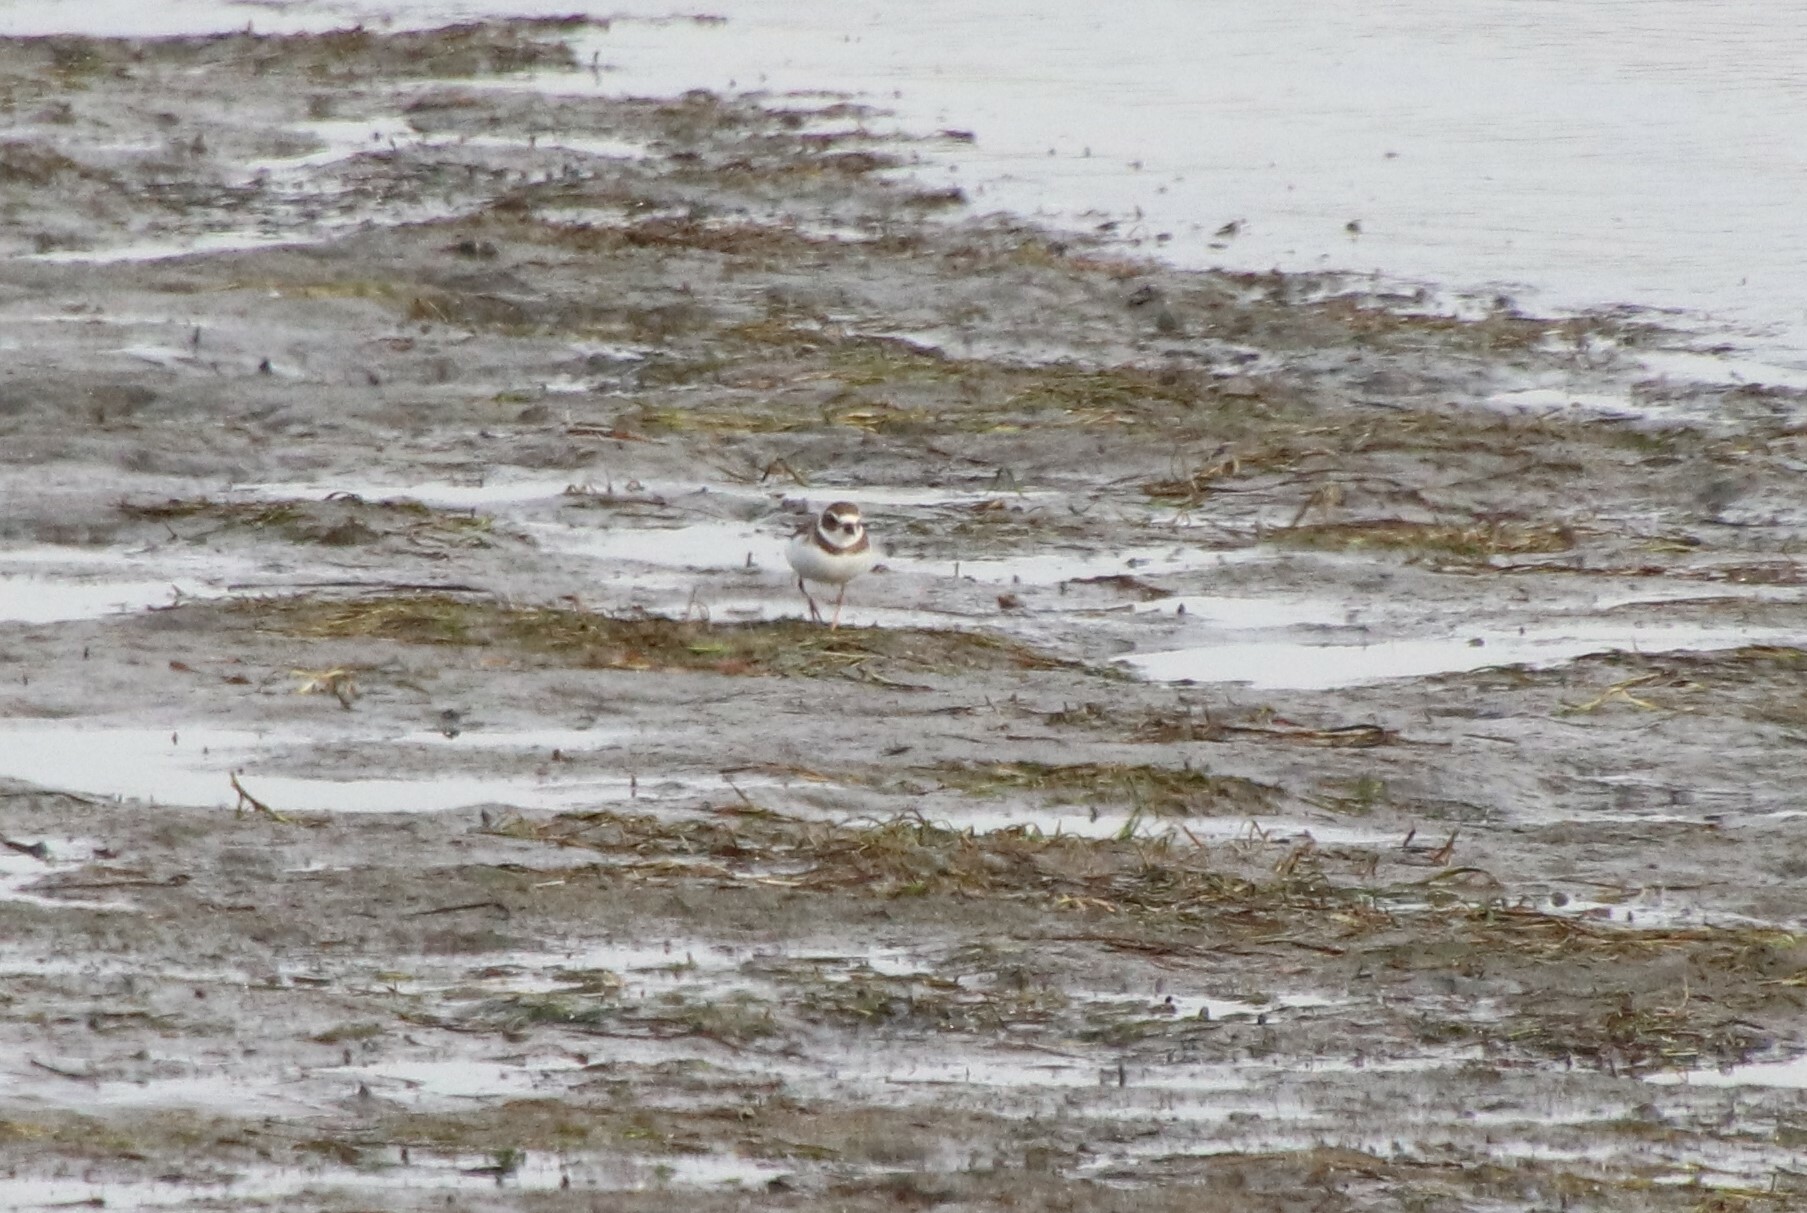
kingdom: Animalia
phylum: Chordata
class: Aves
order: Charadriiformes
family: Charadriidae
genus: Charadrius
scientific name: Charadrius semipalmatus
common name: Semipalmated plover
